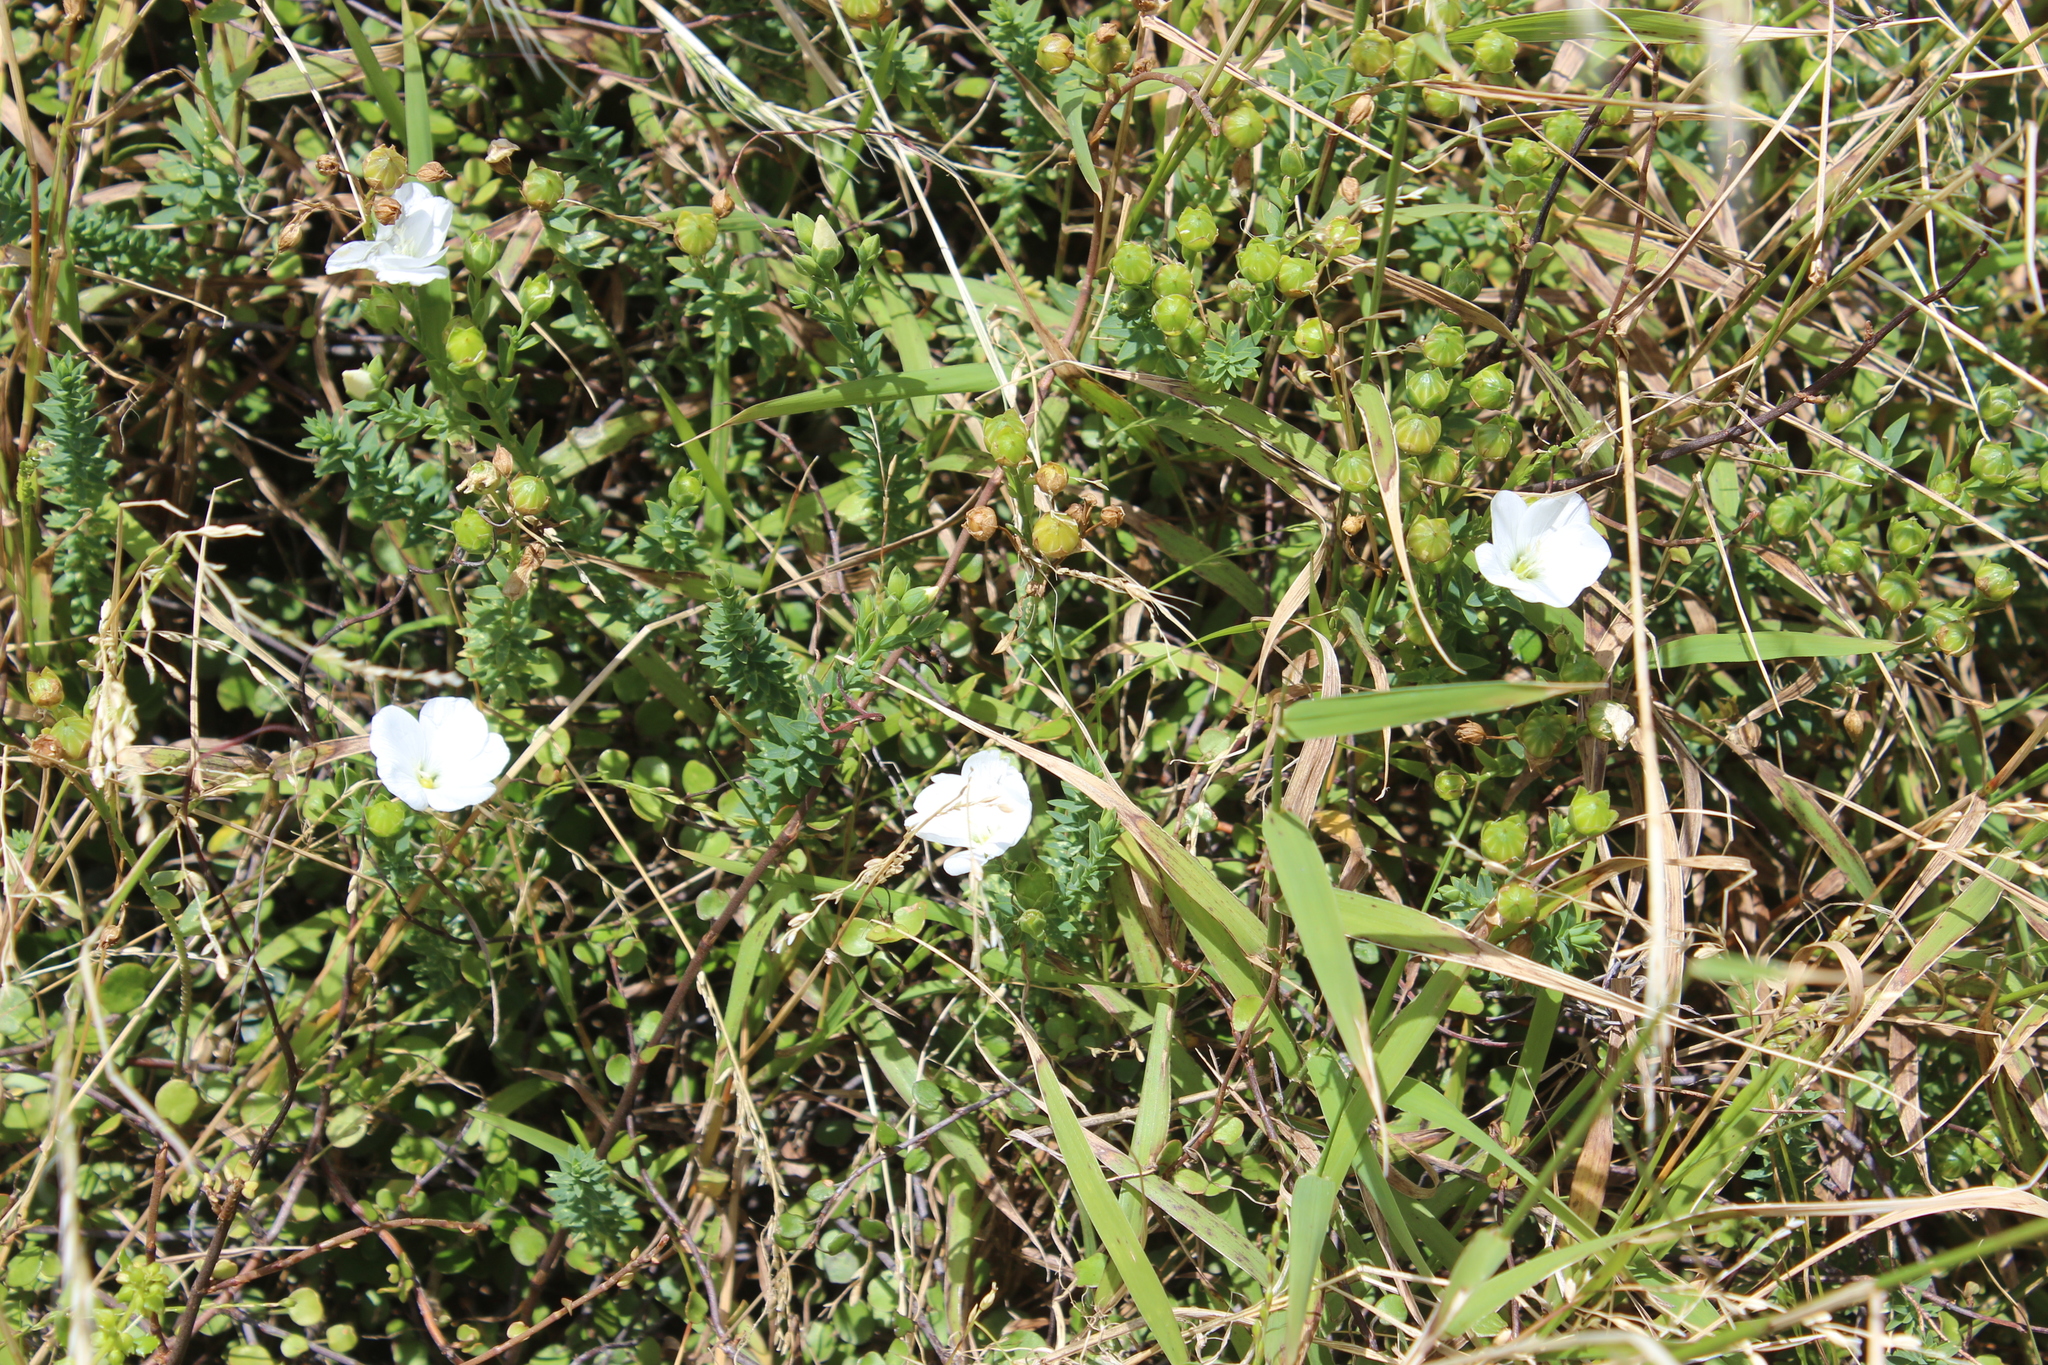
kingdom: Plantae
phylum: Tracheophyta
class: Magnoliopsida
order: Malpighiales
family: Linaceae
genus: Linum
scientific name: Linum monogynum
